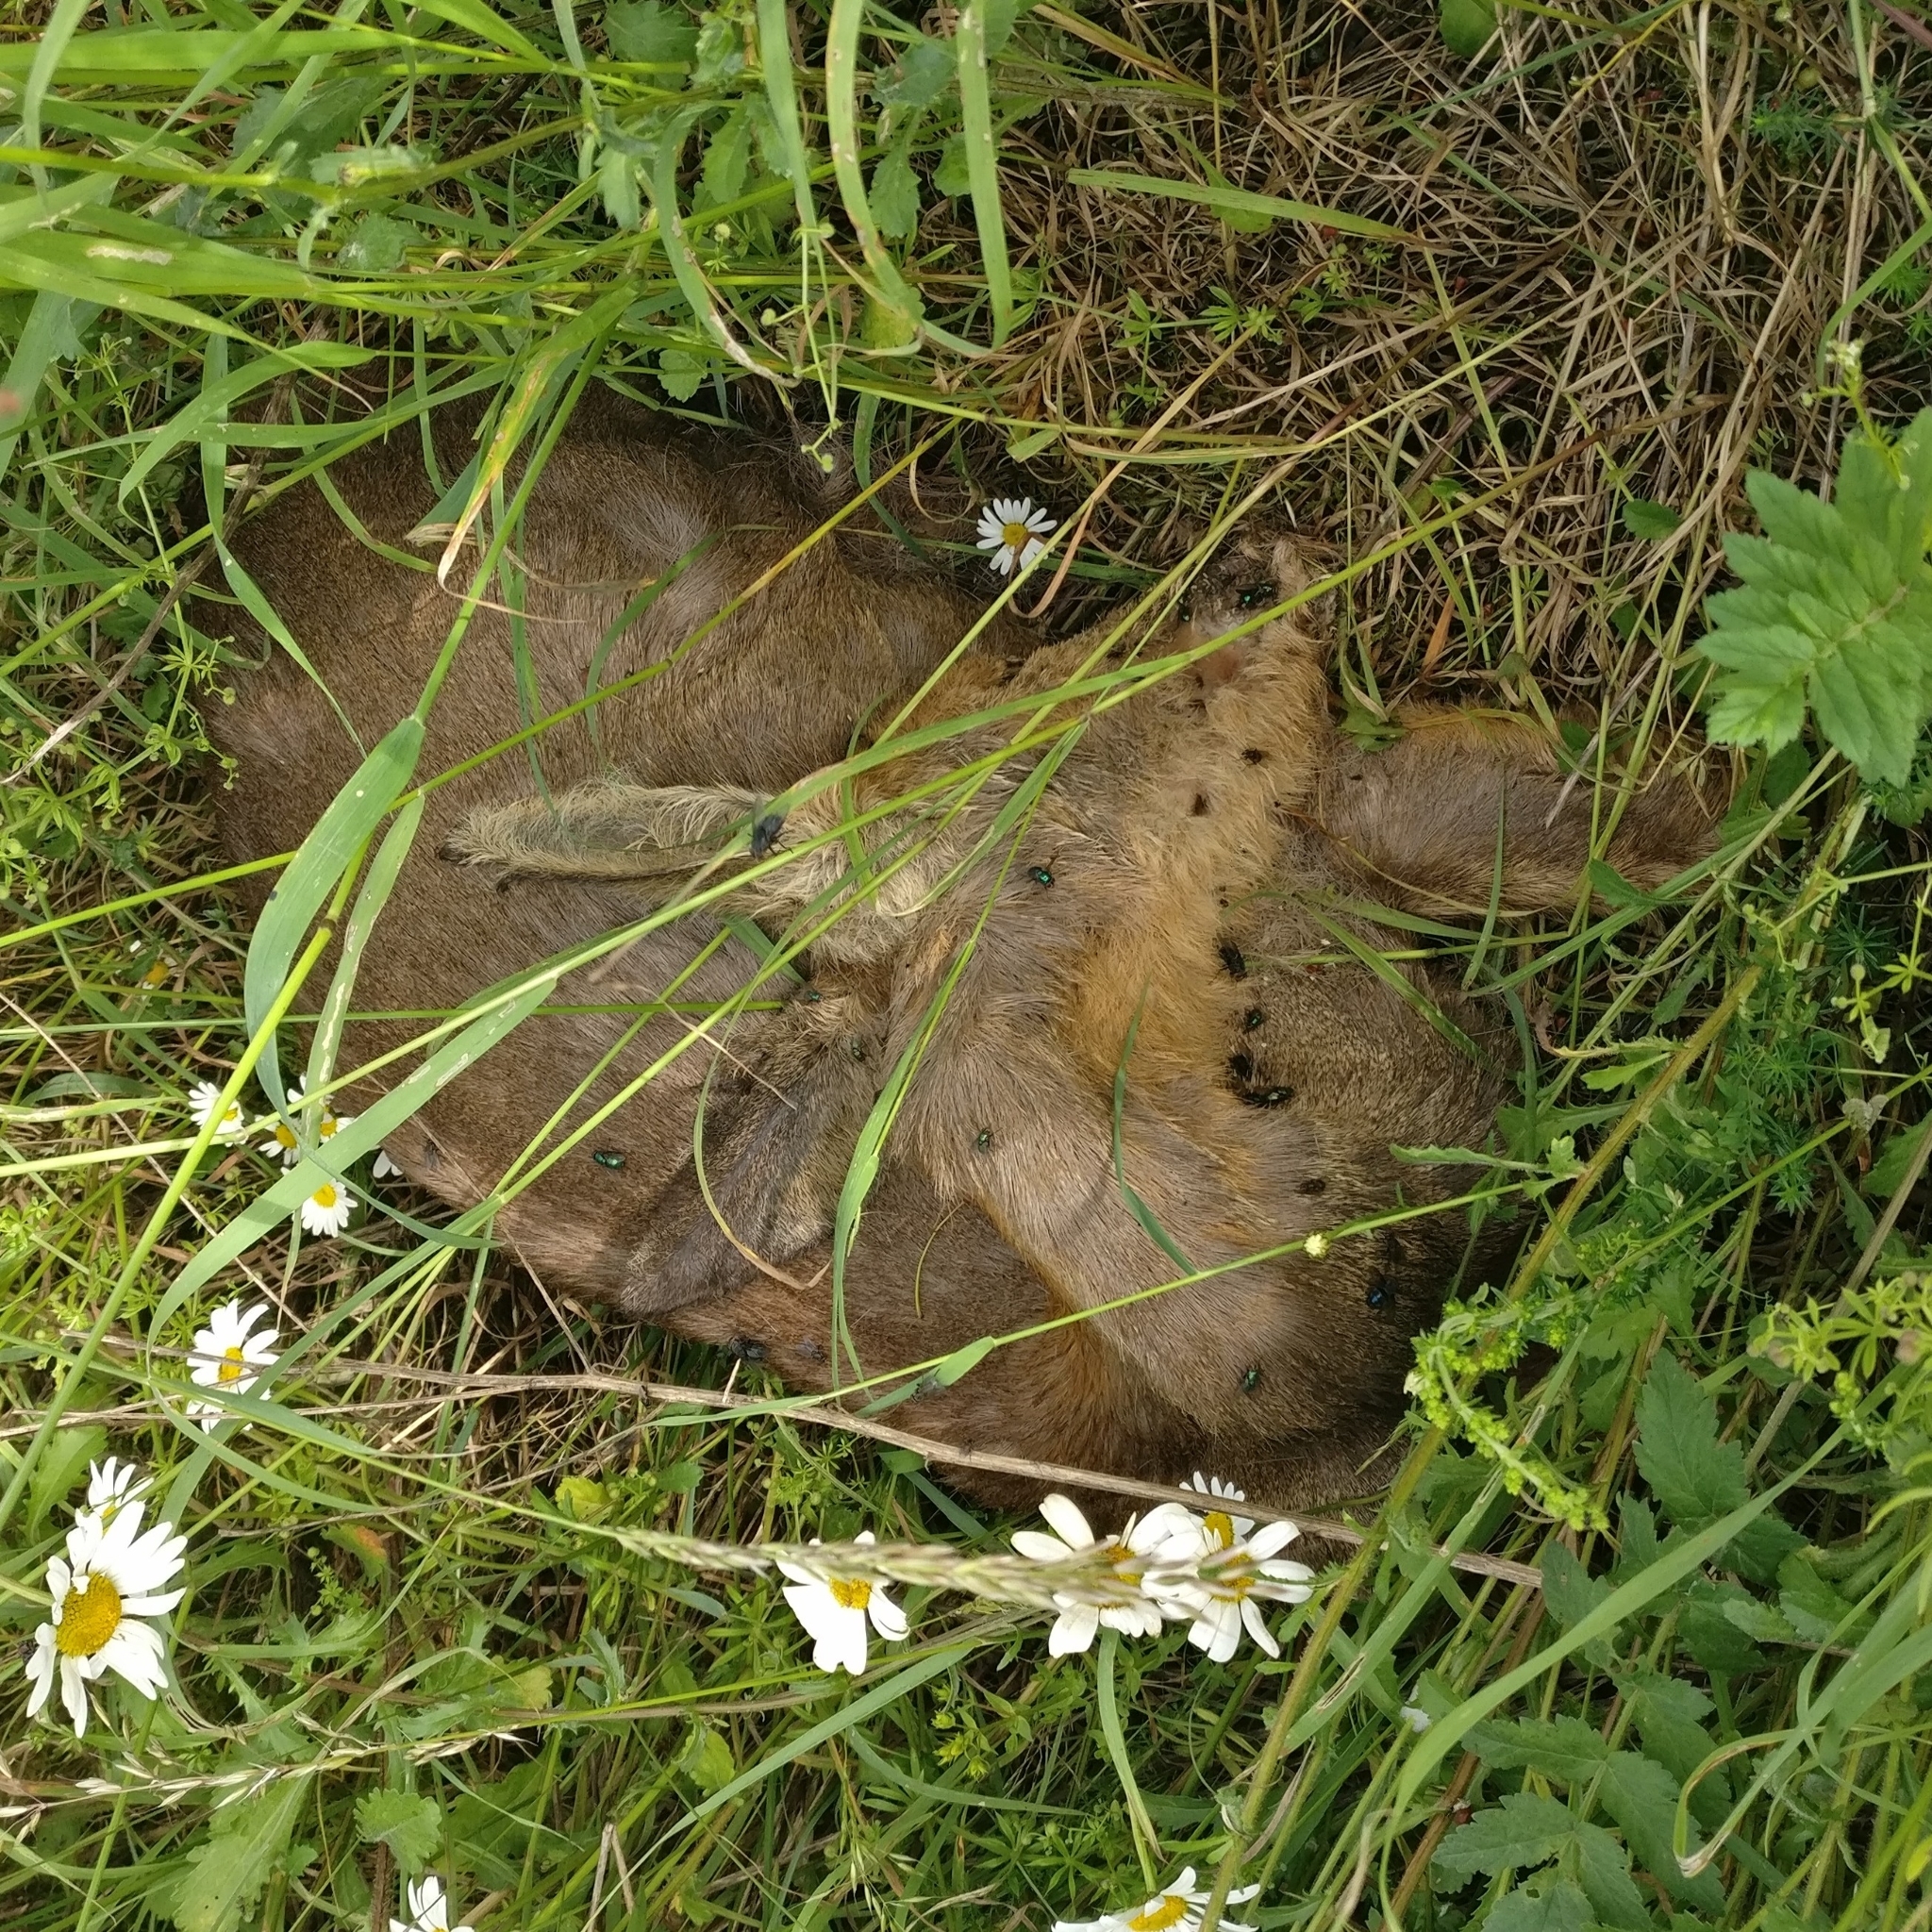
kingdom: Animalia
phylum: Chordata
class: Mammalia
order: Artiodactyla
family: Cervidae
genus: Capreolus
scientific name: Capreolus capreolus
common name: Western roe deer
